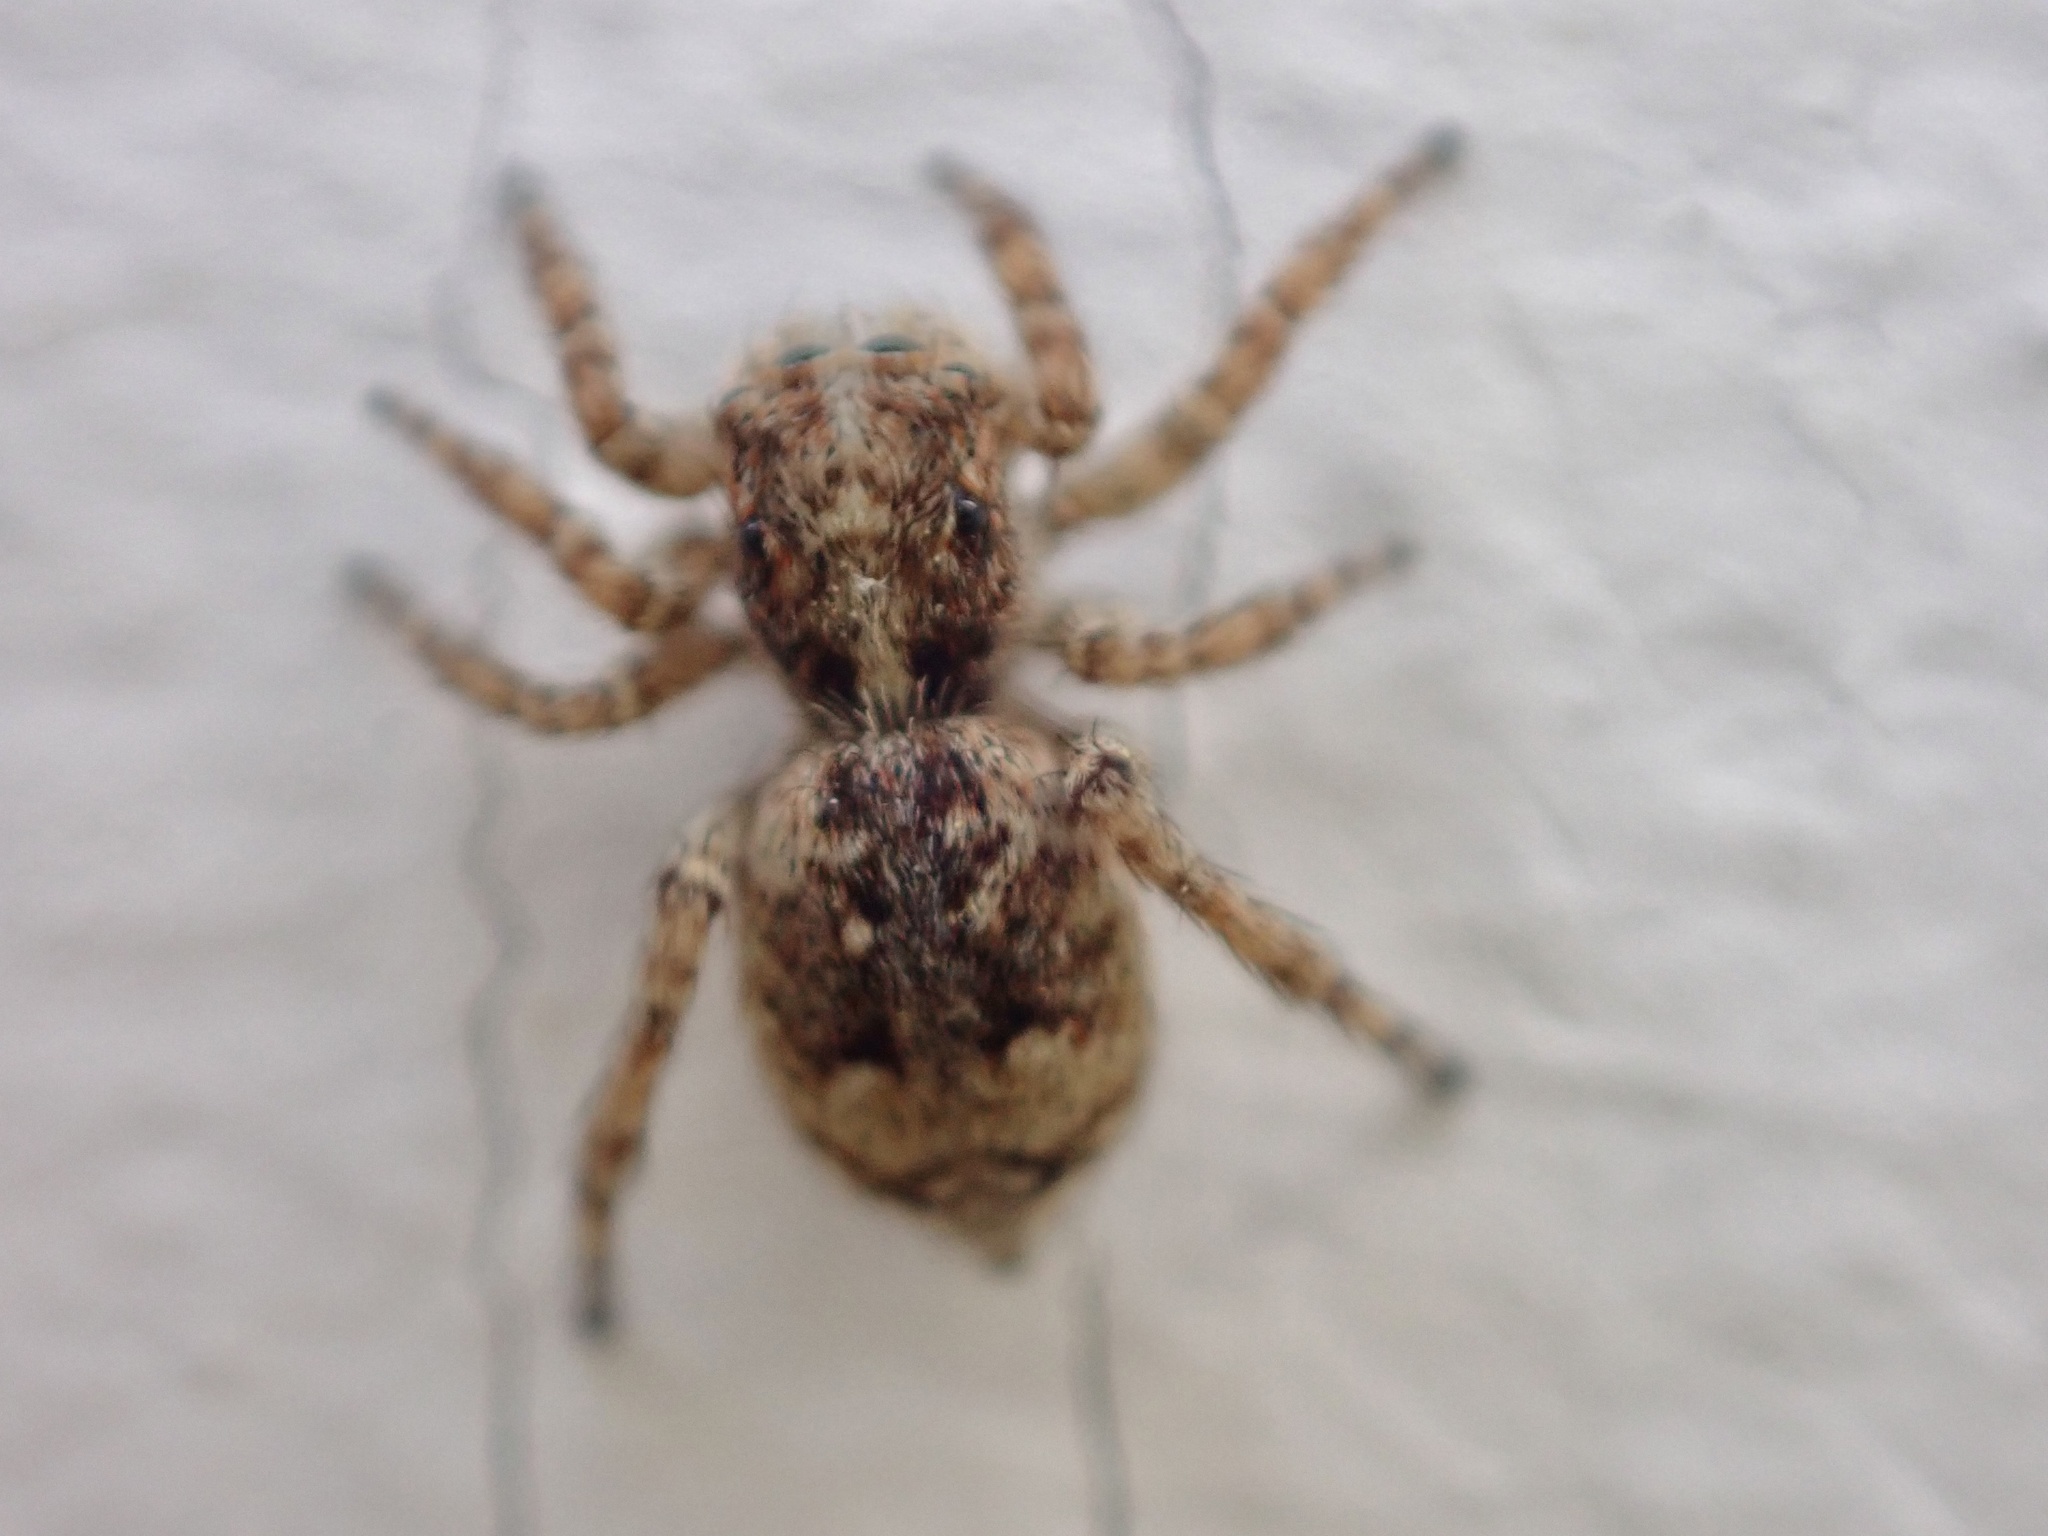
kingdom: Animalia
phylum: Arthropoda
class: Arachnida
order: Araneae
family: Salticidae
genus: Attulus
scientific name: Attulus fasciger
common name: Asiatic wall jumping spider
